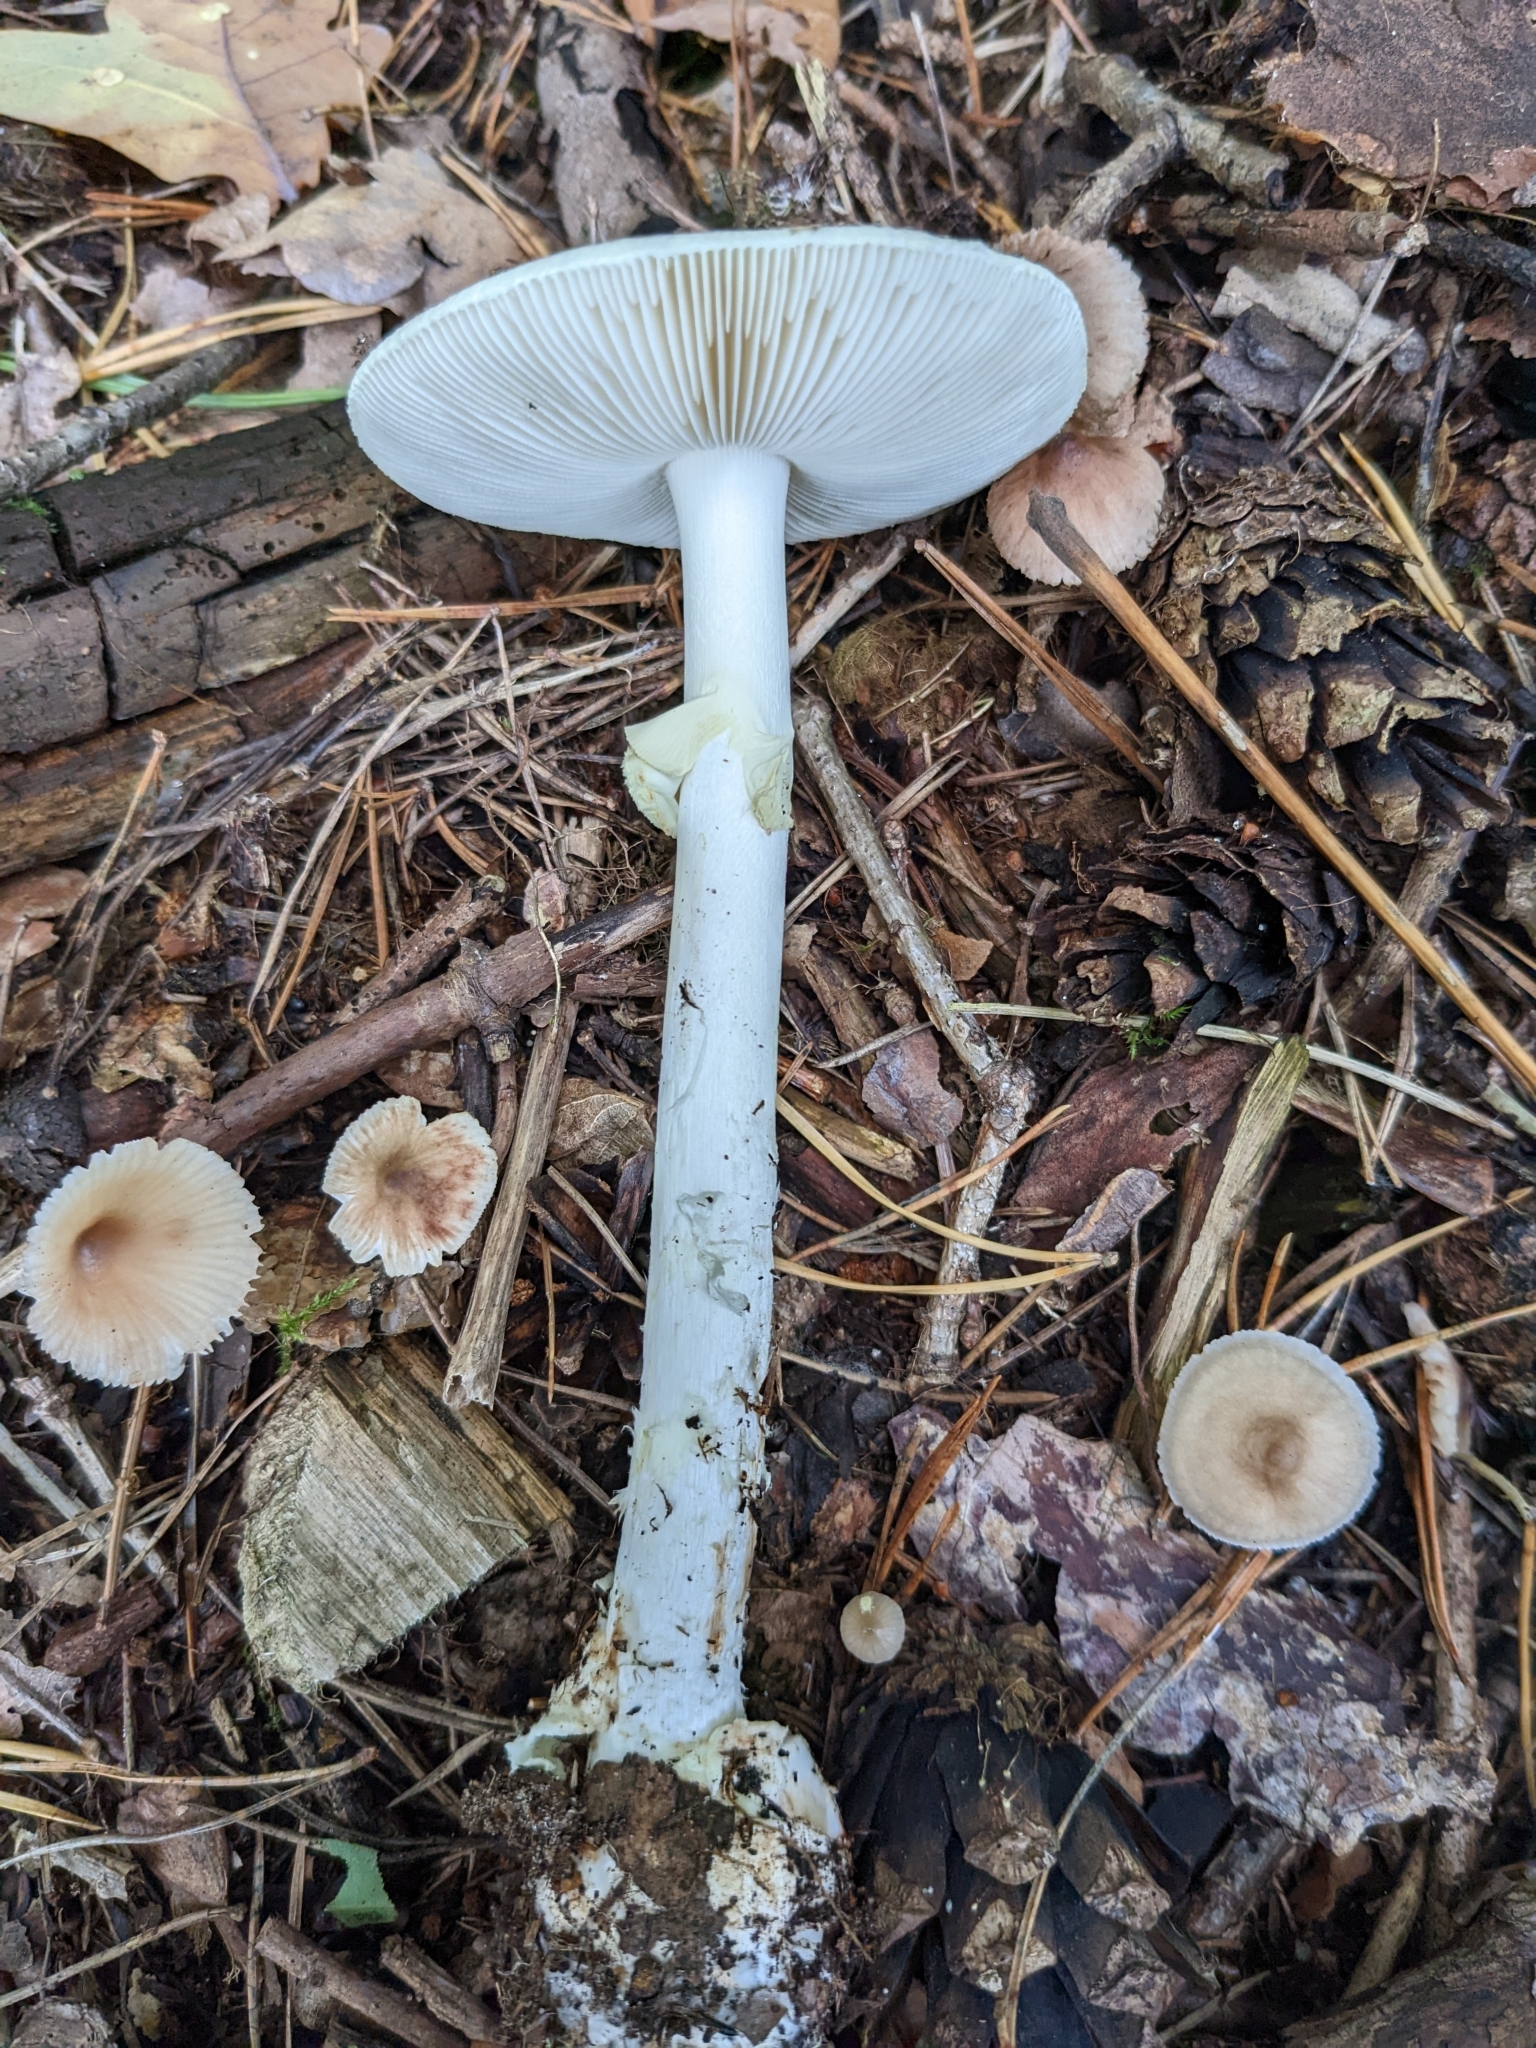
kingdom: Fungi
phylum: Basidiomycota
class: Agaricomycetes
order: Agaricales
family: Amanitaceae
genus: Amanita
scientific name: Amanita citrina
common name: False death-cap
